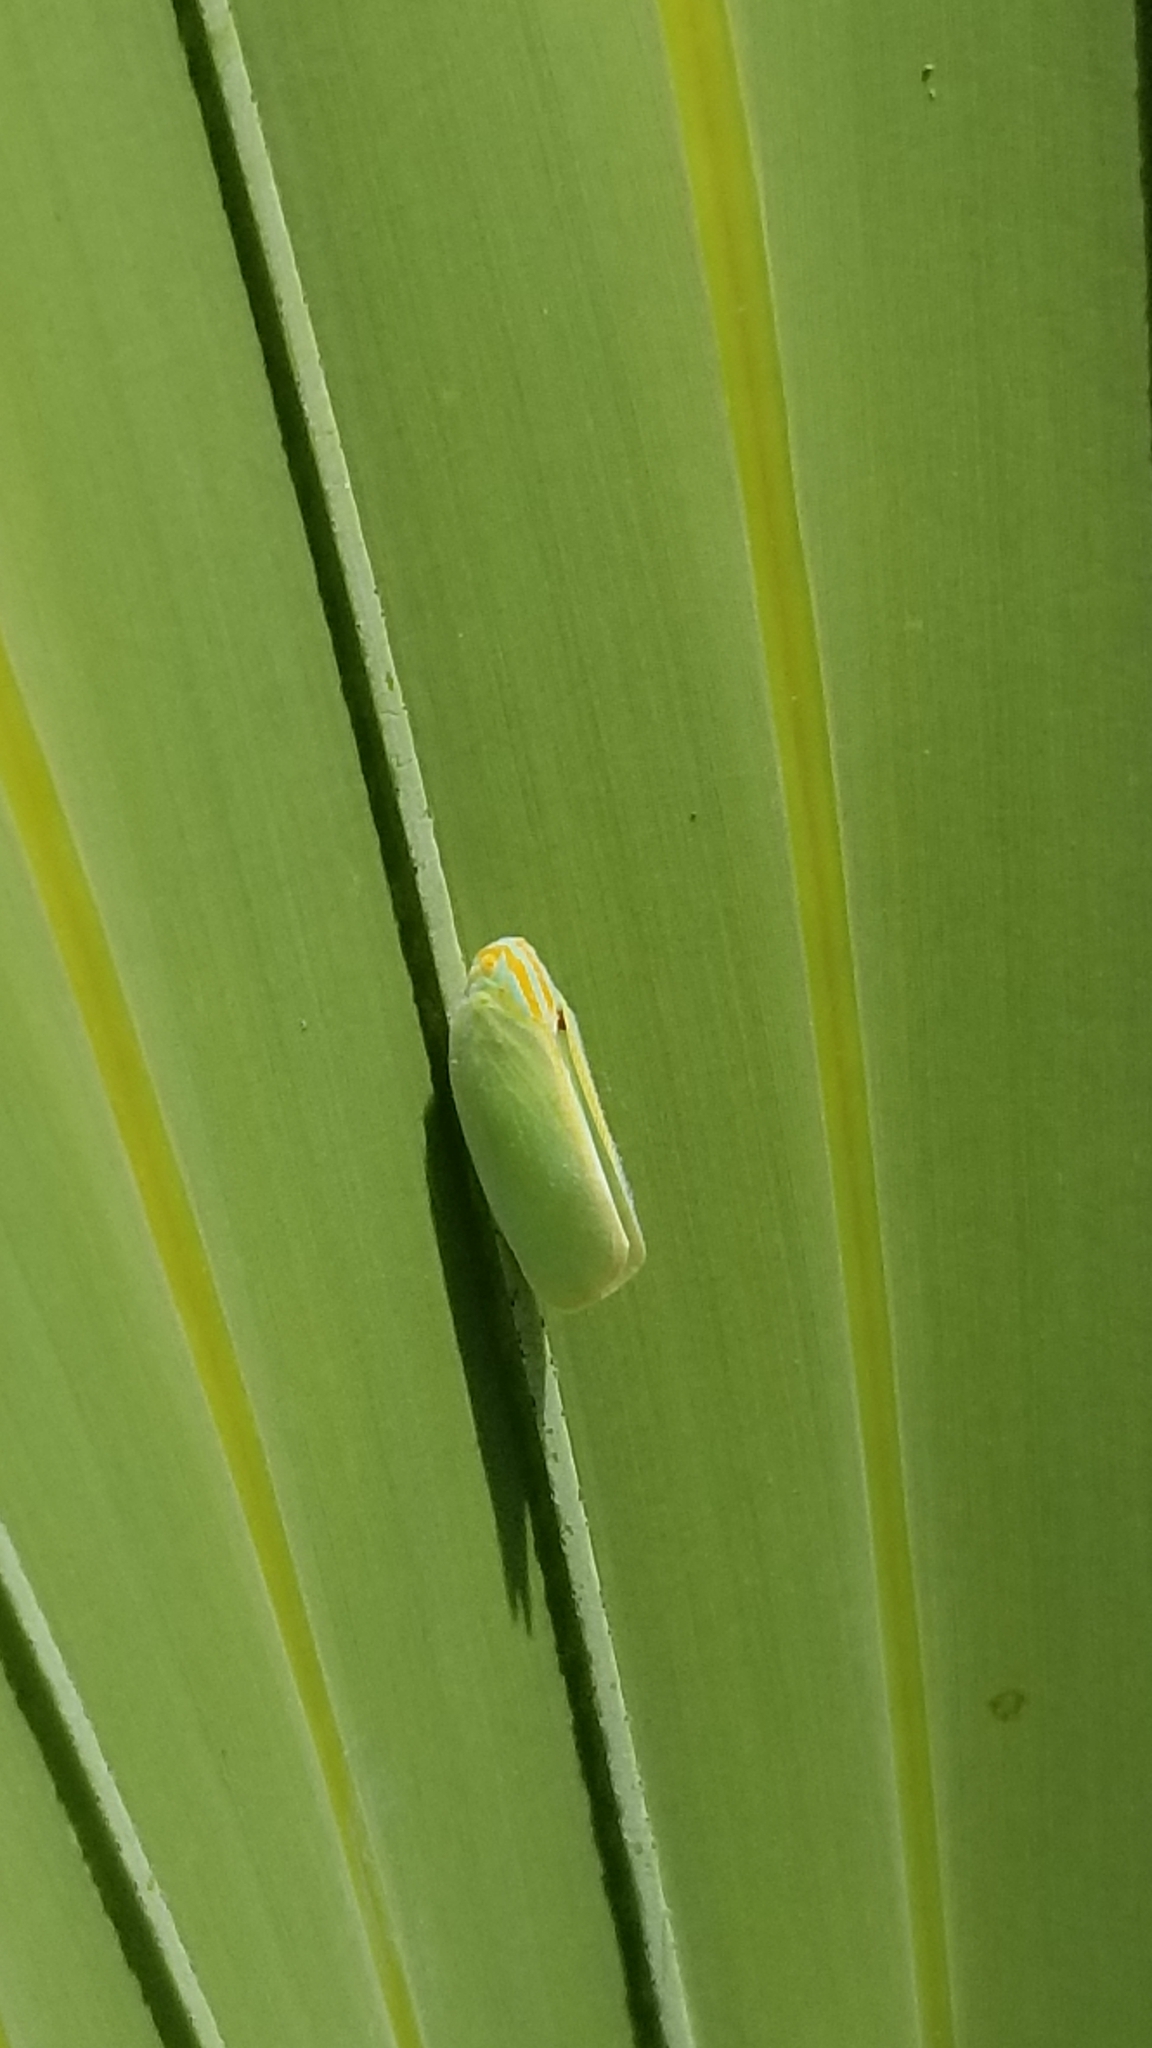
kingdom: Animalia
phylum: Arthropoda
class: Insecta
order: Hemiptera
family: Flatidae
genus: Ormenaria
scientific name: Ormenaria rufifascia
